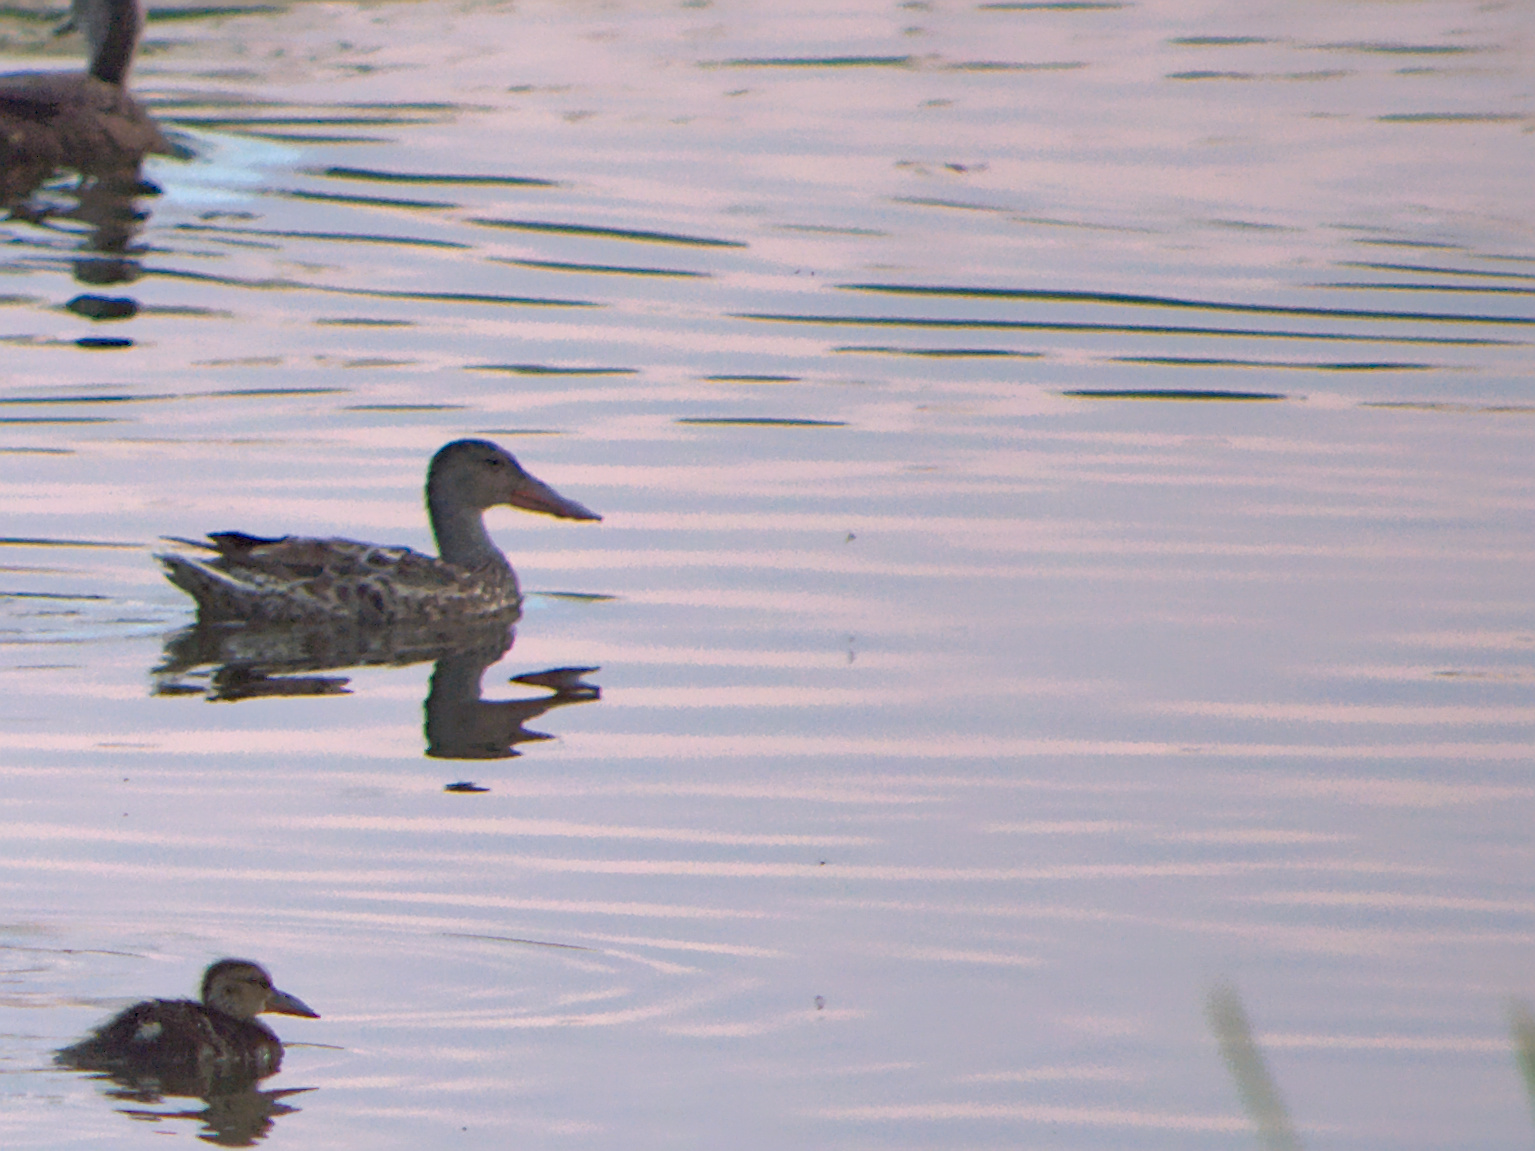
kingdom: Animalia
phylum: Chordata
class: Aves
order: Anseriformes
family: Anatidae
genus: Spatula
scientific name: Spatula clypeata
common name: Northern shoveler
